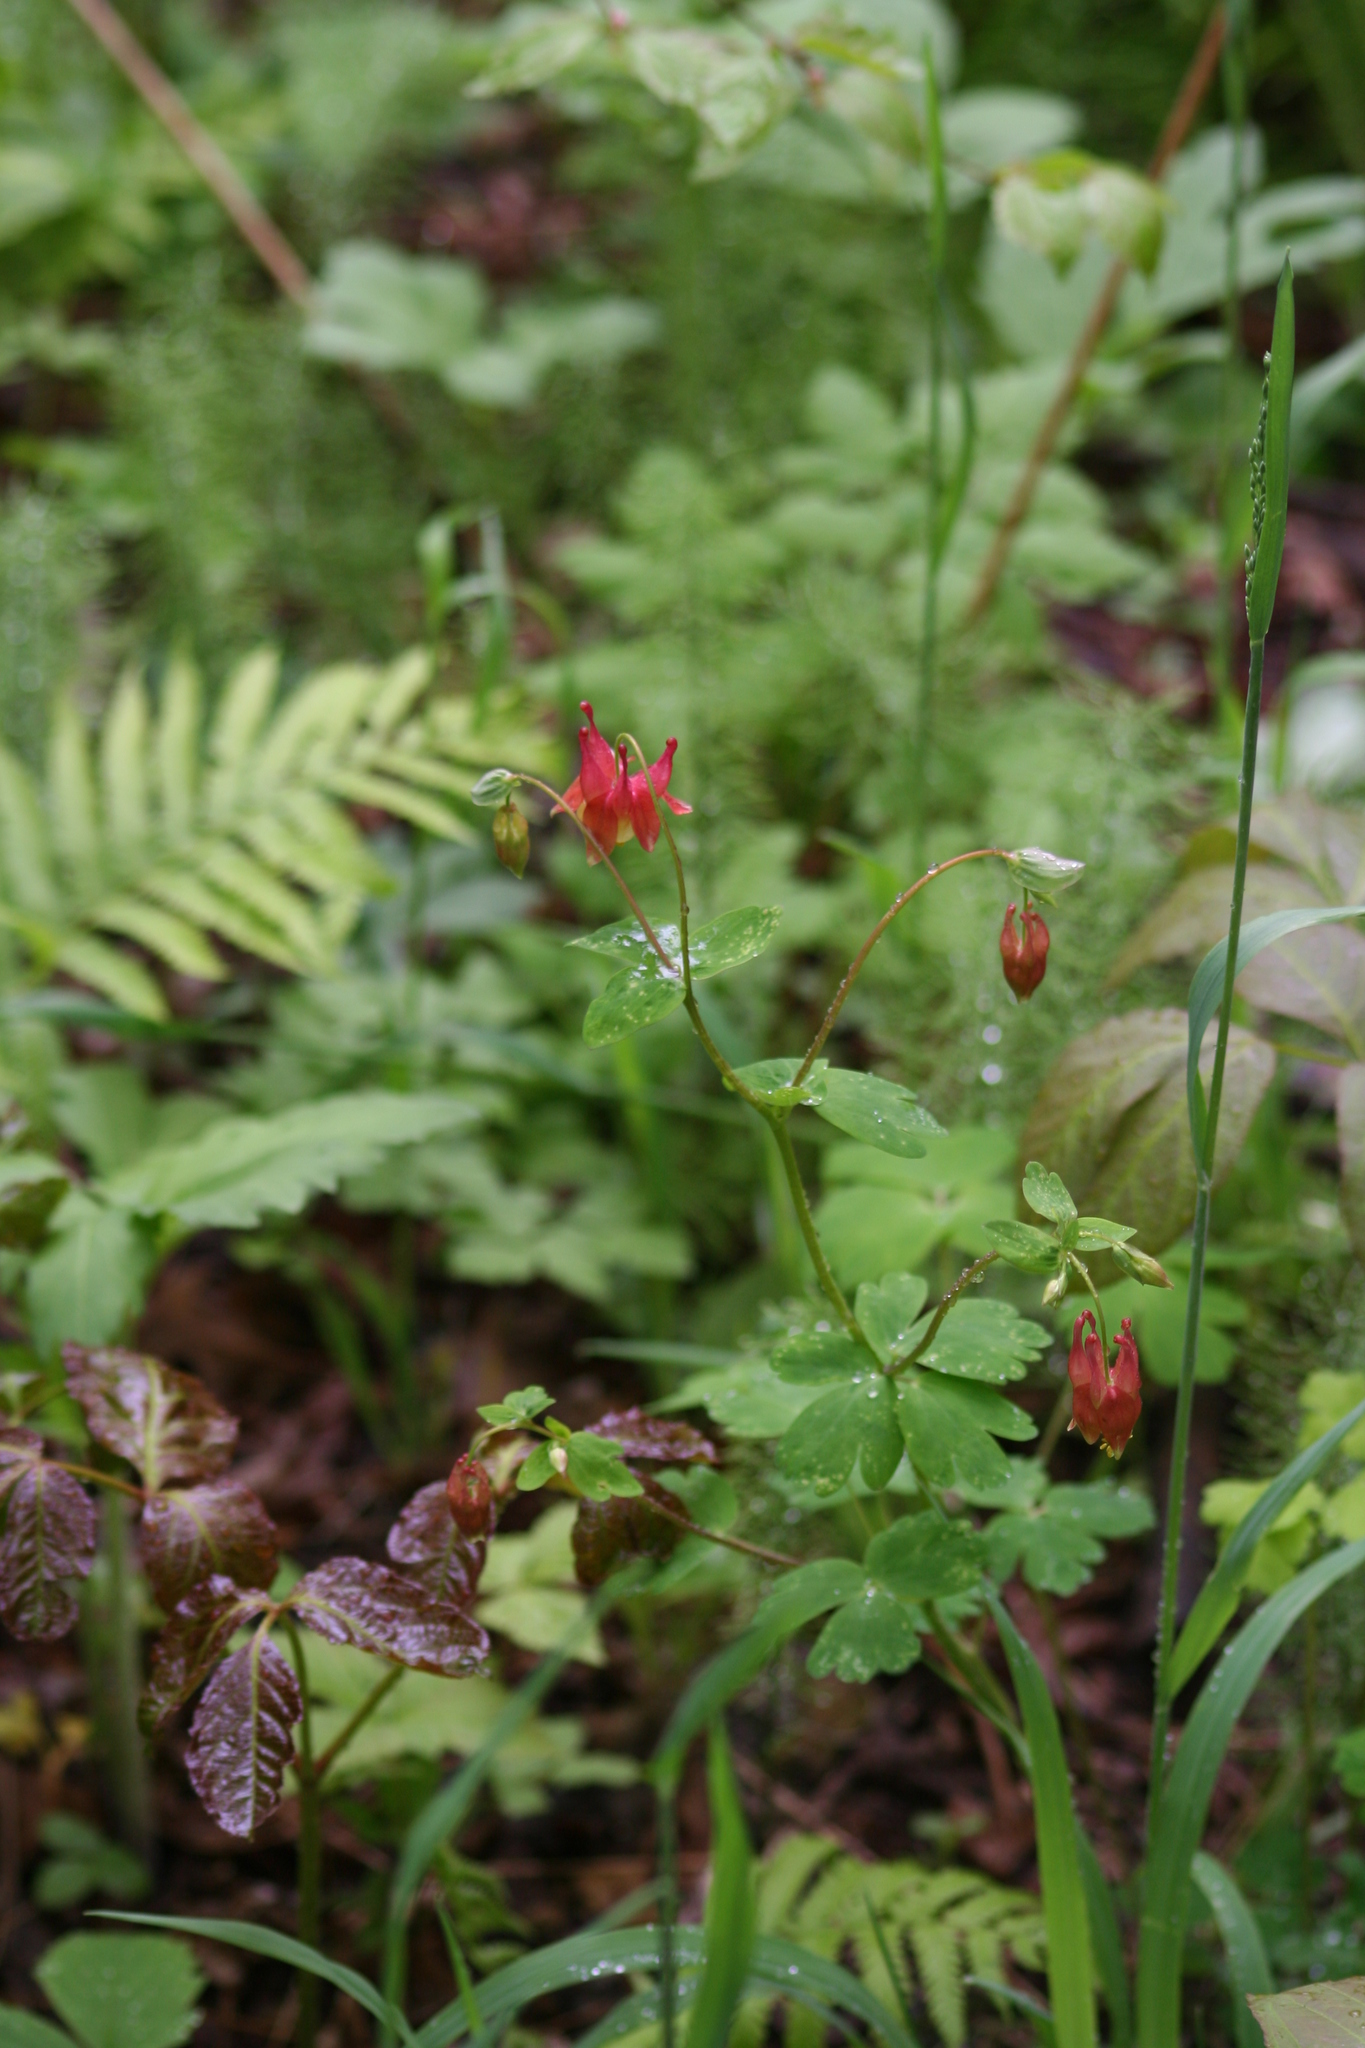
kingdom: Plantae
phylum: Tracheophyta
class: Magnoliopsida
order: Ranunculales
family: Ranunculaceae
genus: Aquilegia
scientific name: Aquilegia canadensis
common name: American columbine
